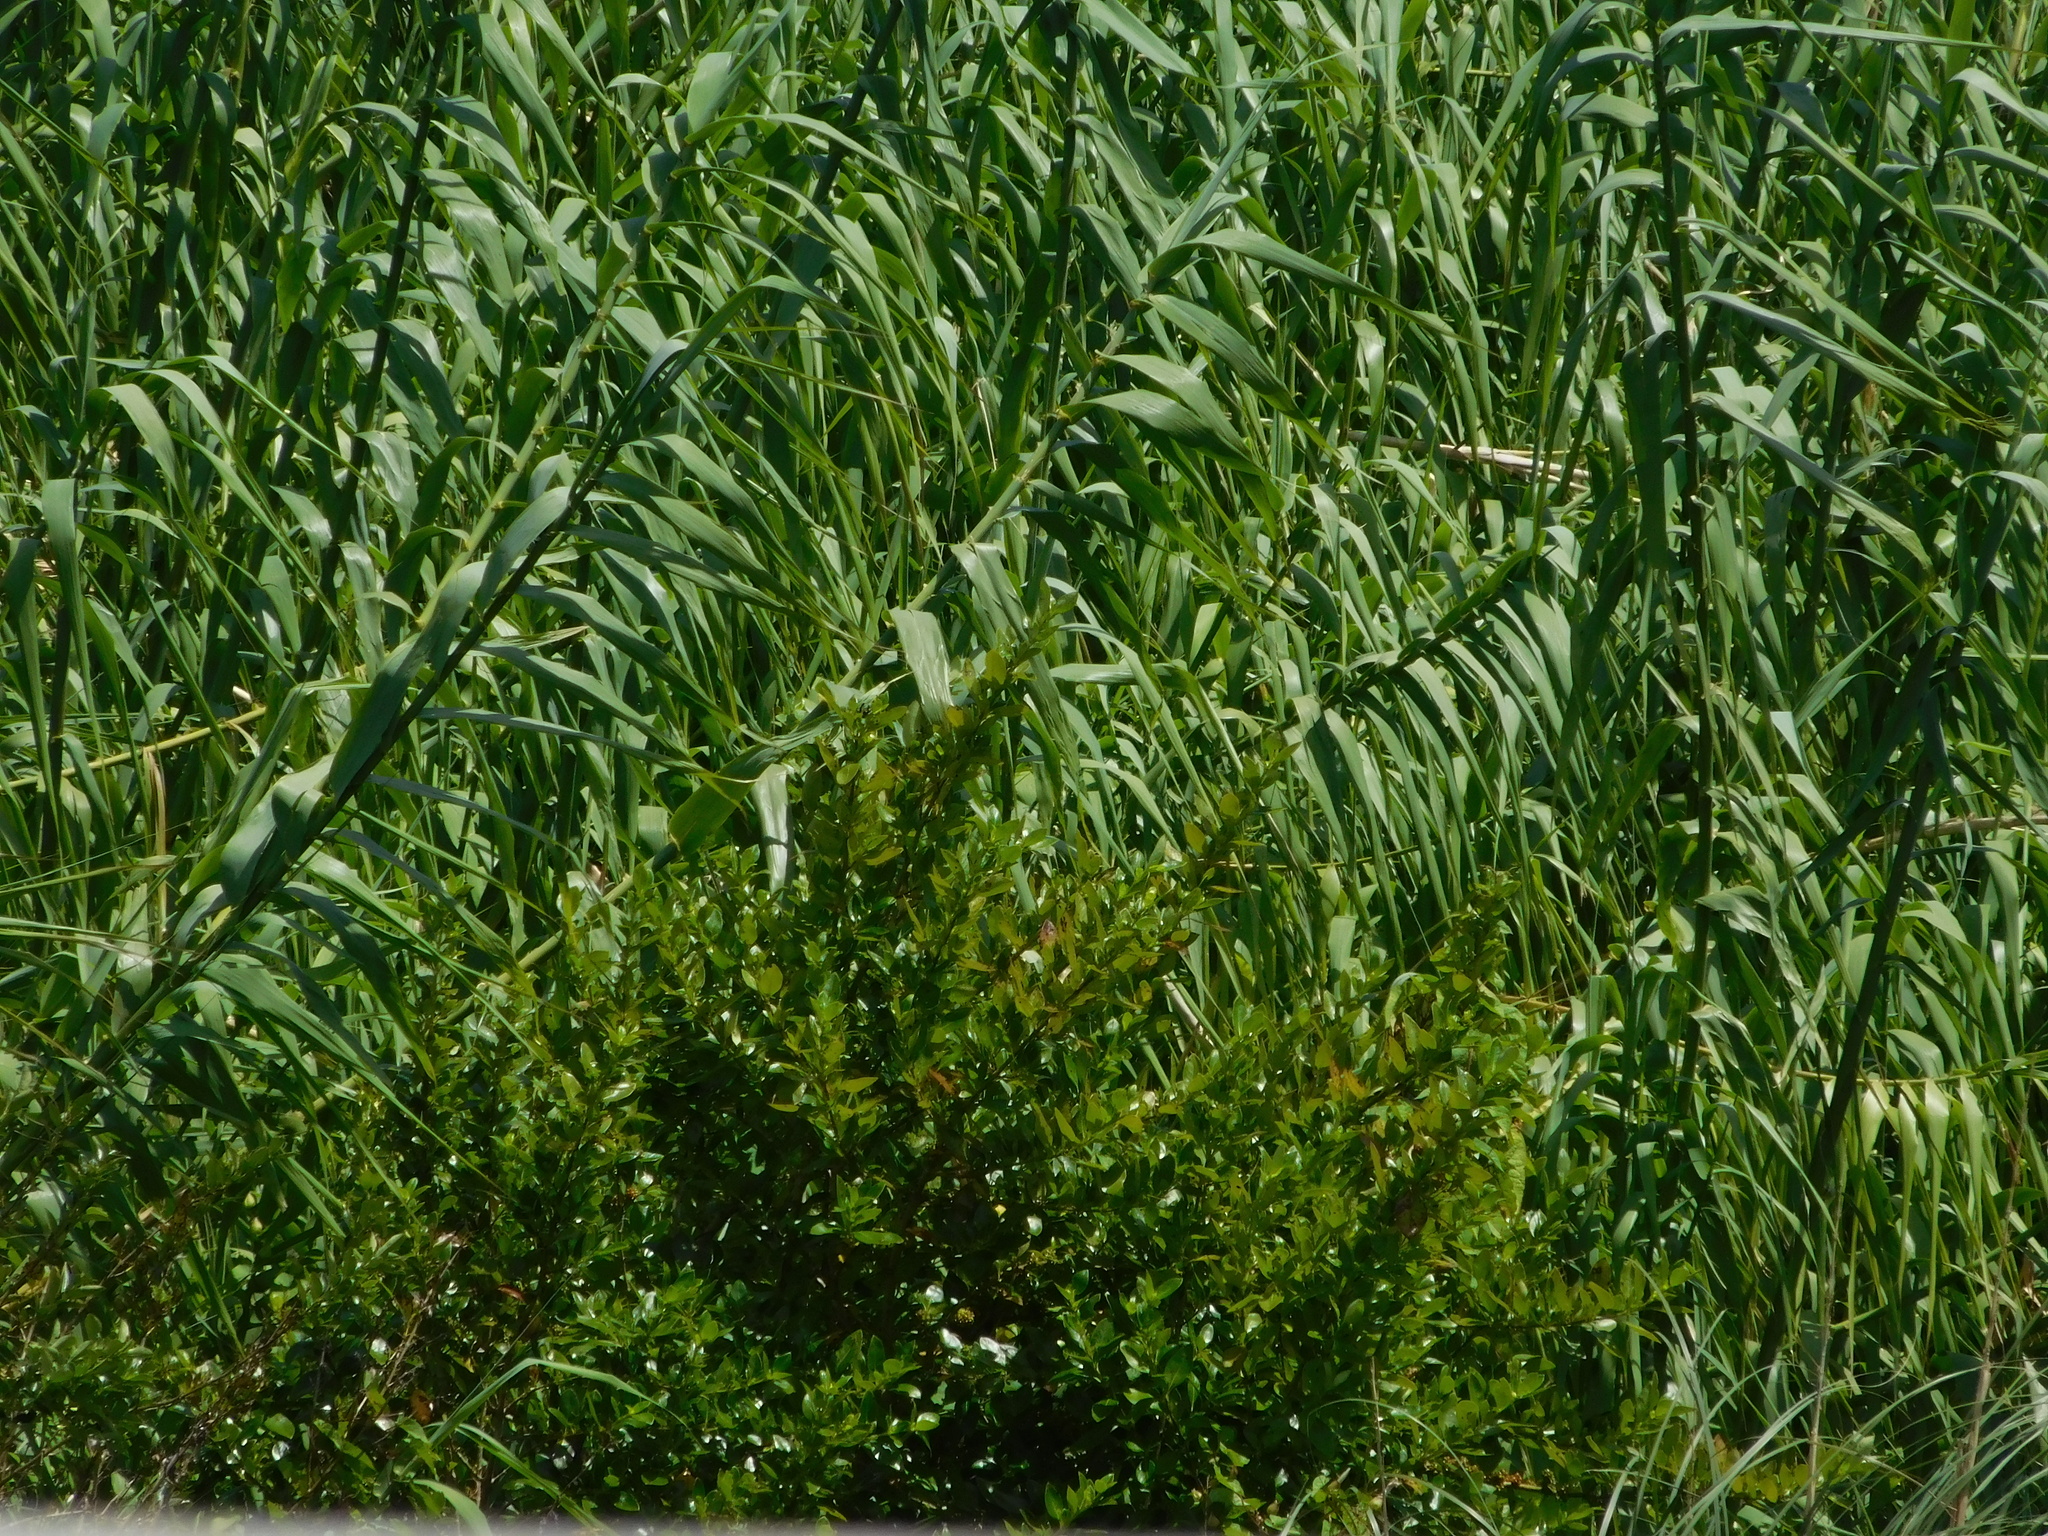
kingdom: Plantae
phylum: Tracheophyta
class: Liliopsida
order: Poales
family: Poaceae
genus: Arundo
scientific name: Arundo donax
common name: Giant reed
